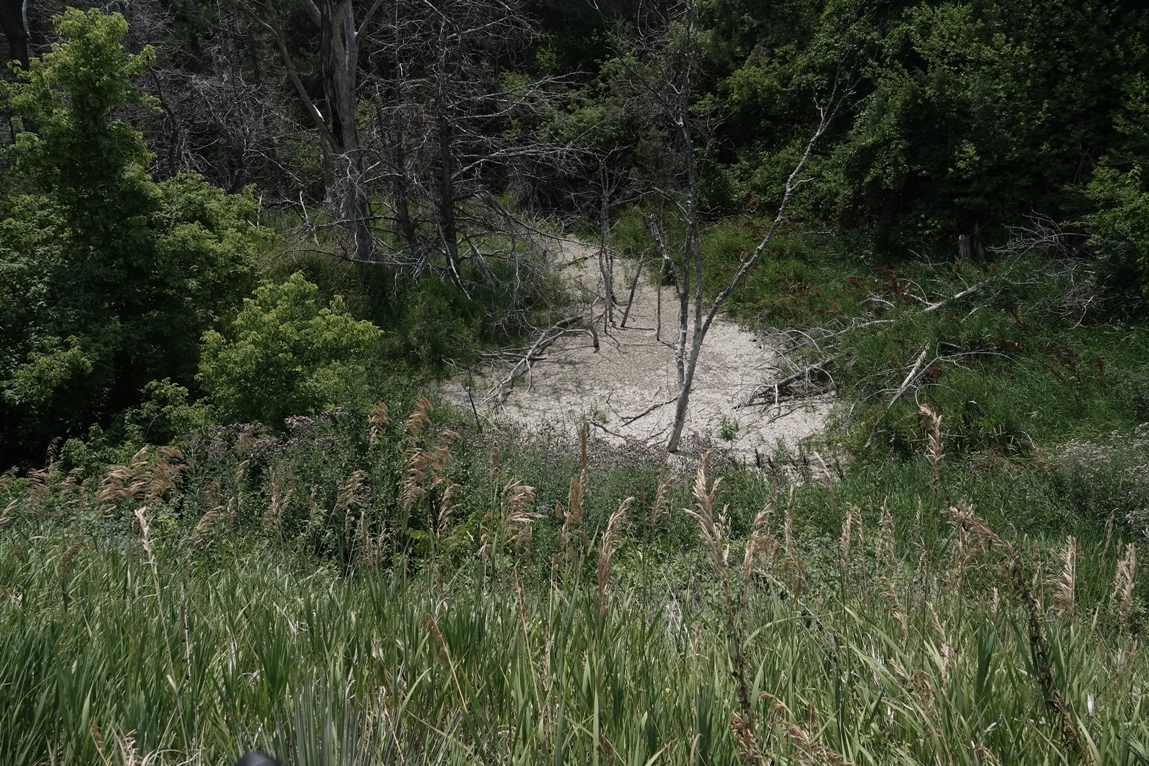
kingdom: Plantae
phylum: Tracheophyta
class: Magnoliopsida
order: Asterales
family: Asteraceae
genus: Cirsium
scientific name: Cirsium arvense
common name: Creeping thistle
